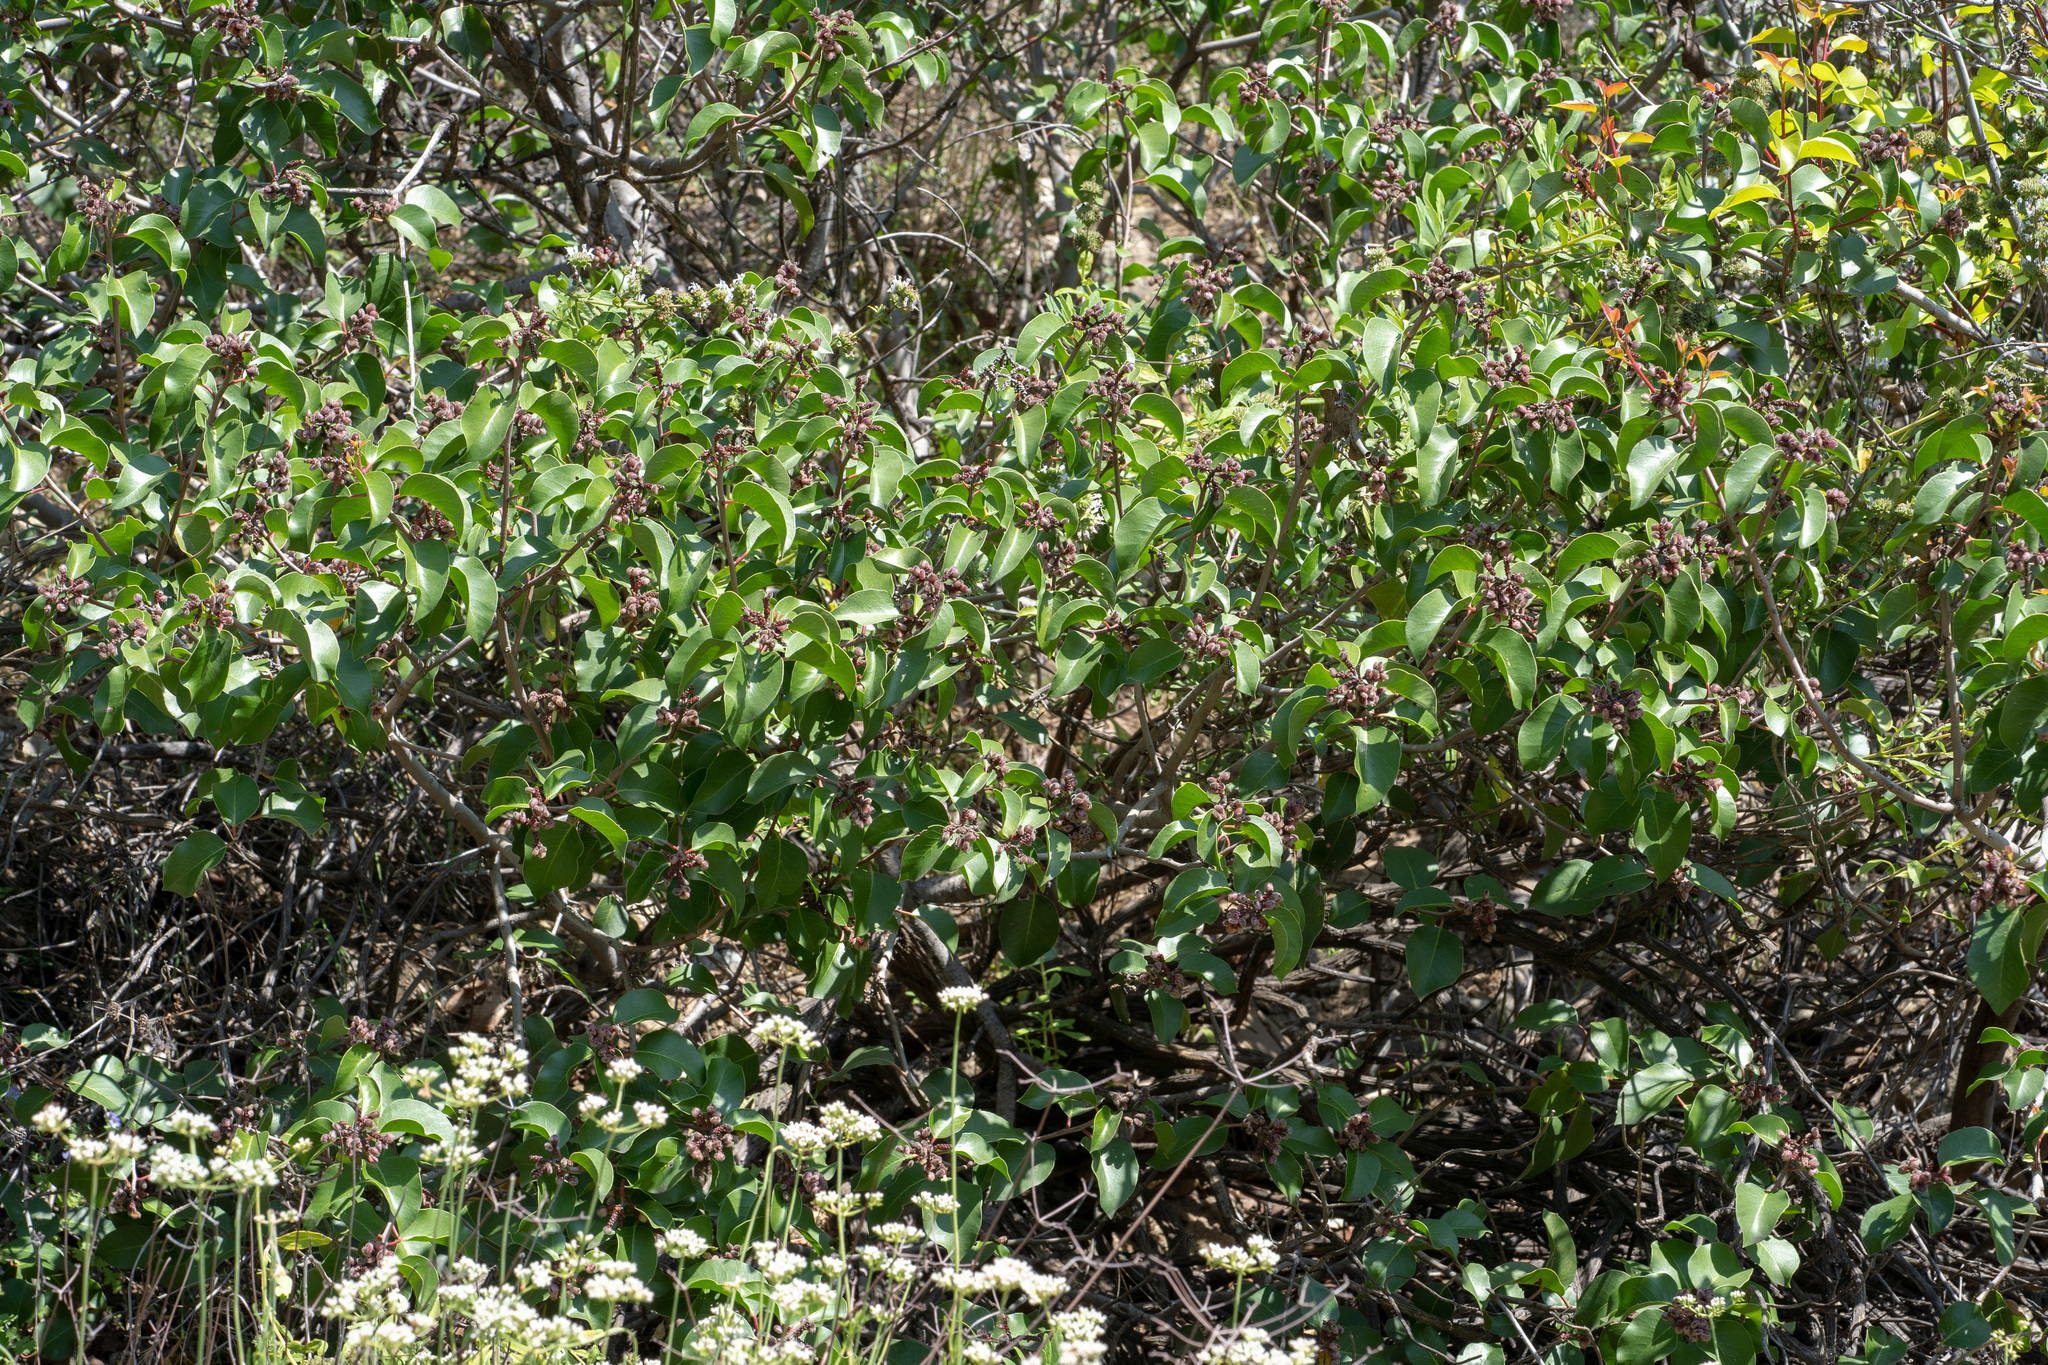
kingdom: Plantae
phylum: Tracheophyta
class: Magnoliopsida
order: Sapindales
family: Anacardiaceae
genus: Rhus
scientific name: Rhus ovata
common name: Sugar sumac
